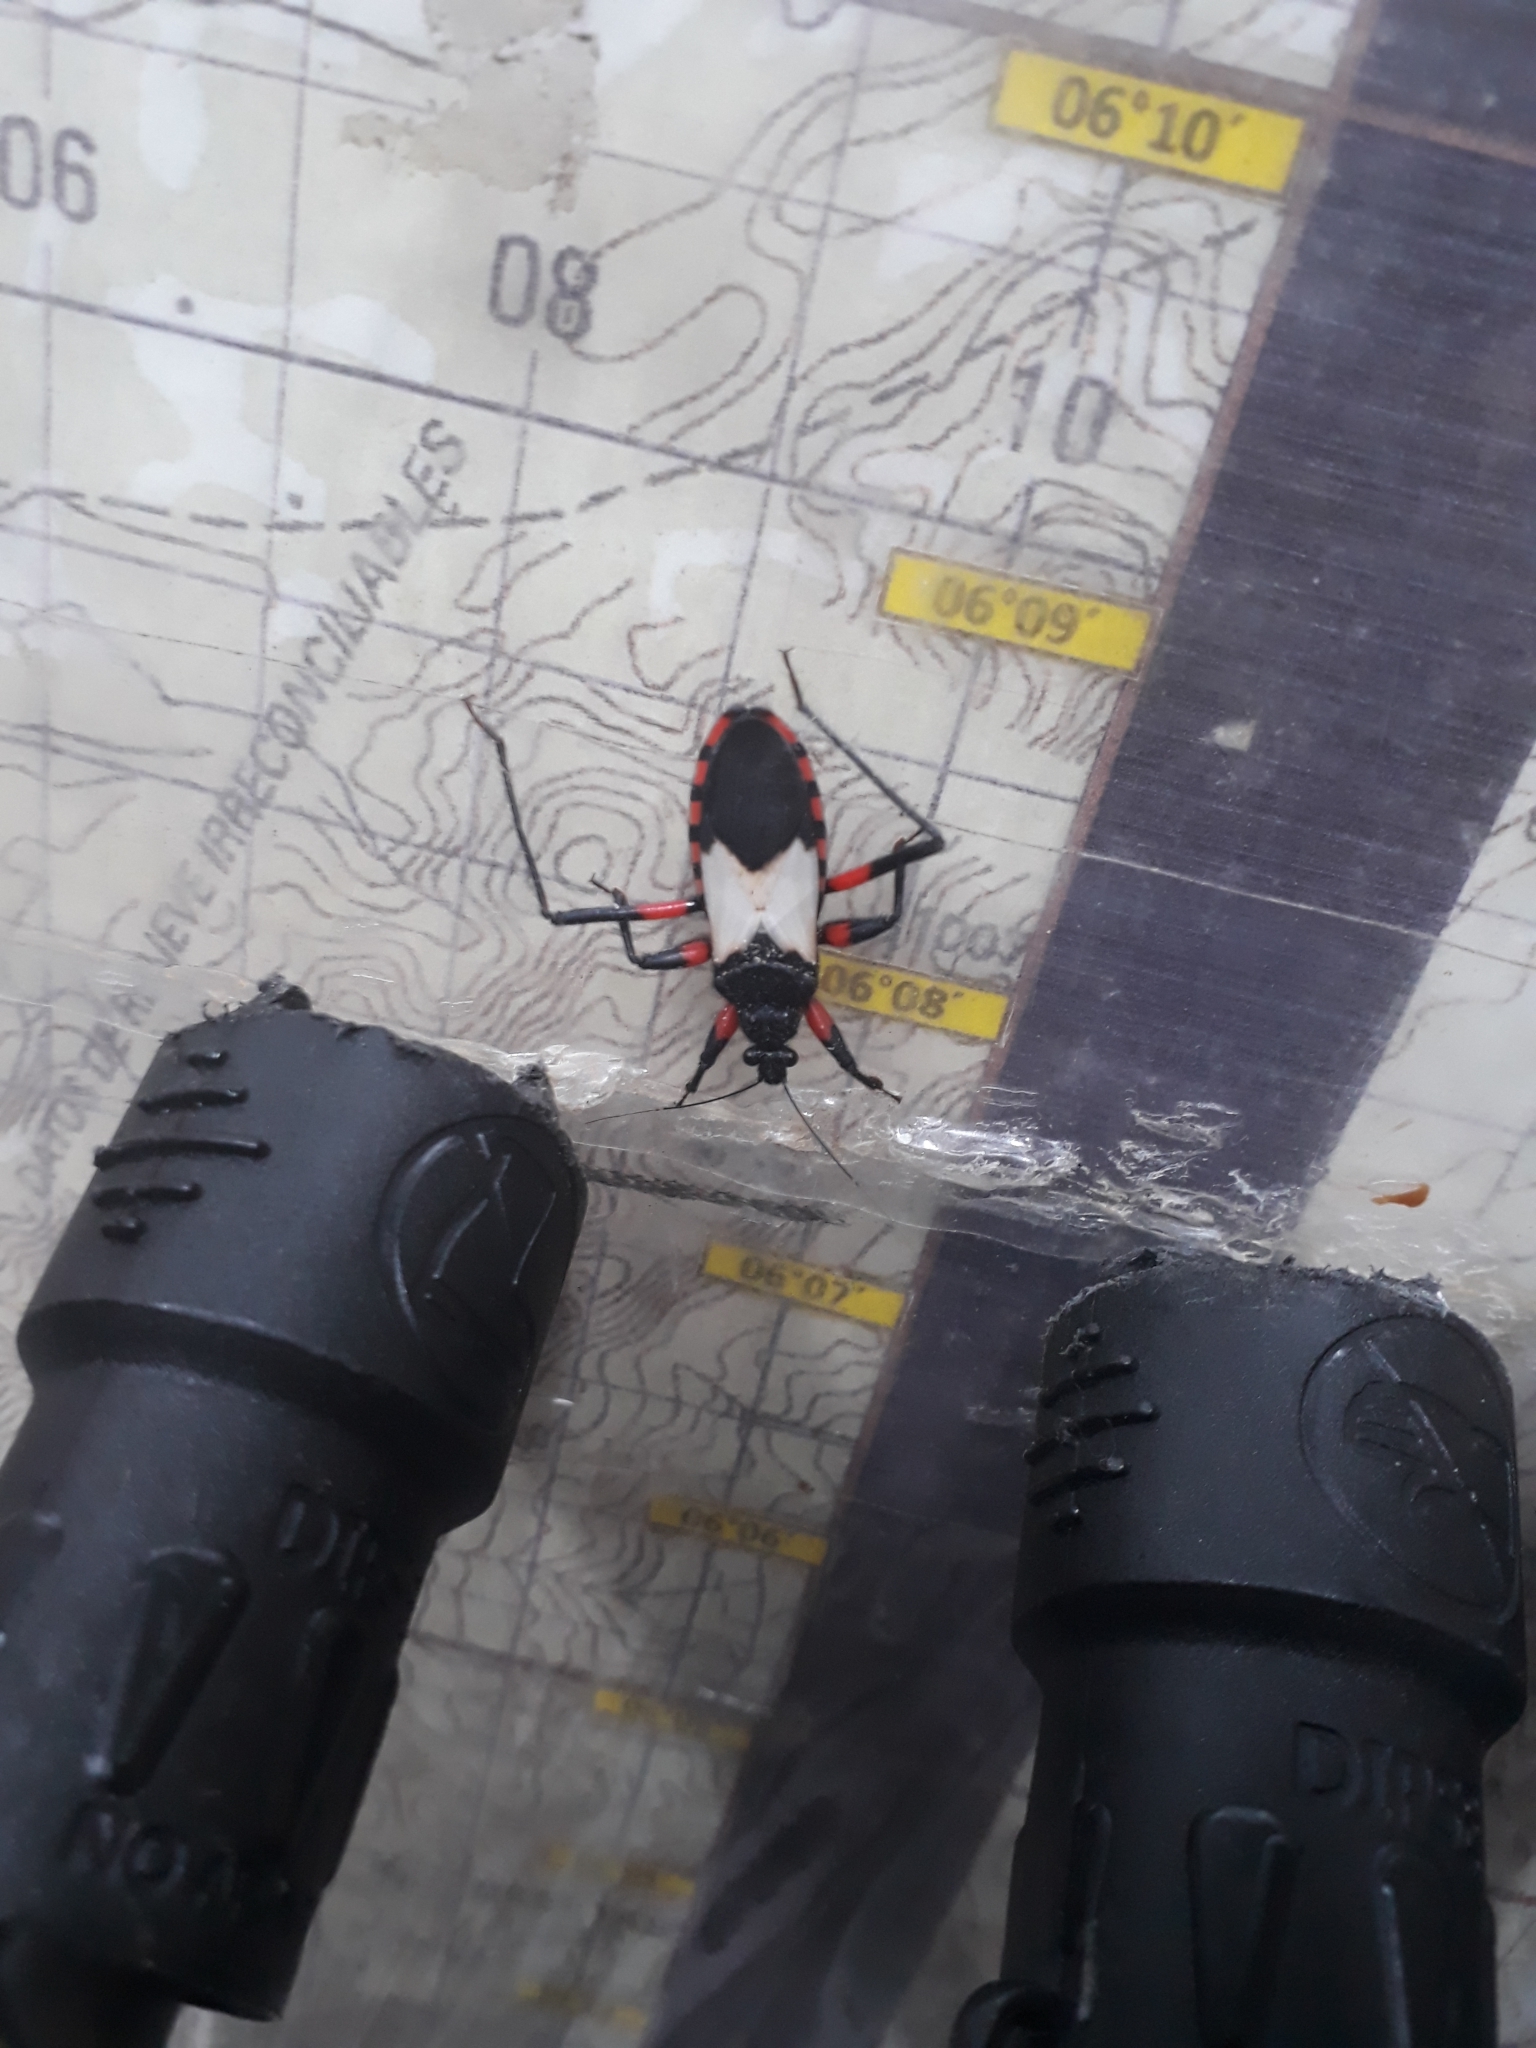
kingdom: Animalia
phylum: Arthropoda
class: Insecta
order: Hemiptera
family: Reduviidae
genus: Microtomus
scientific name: Microtomus cinctipes
